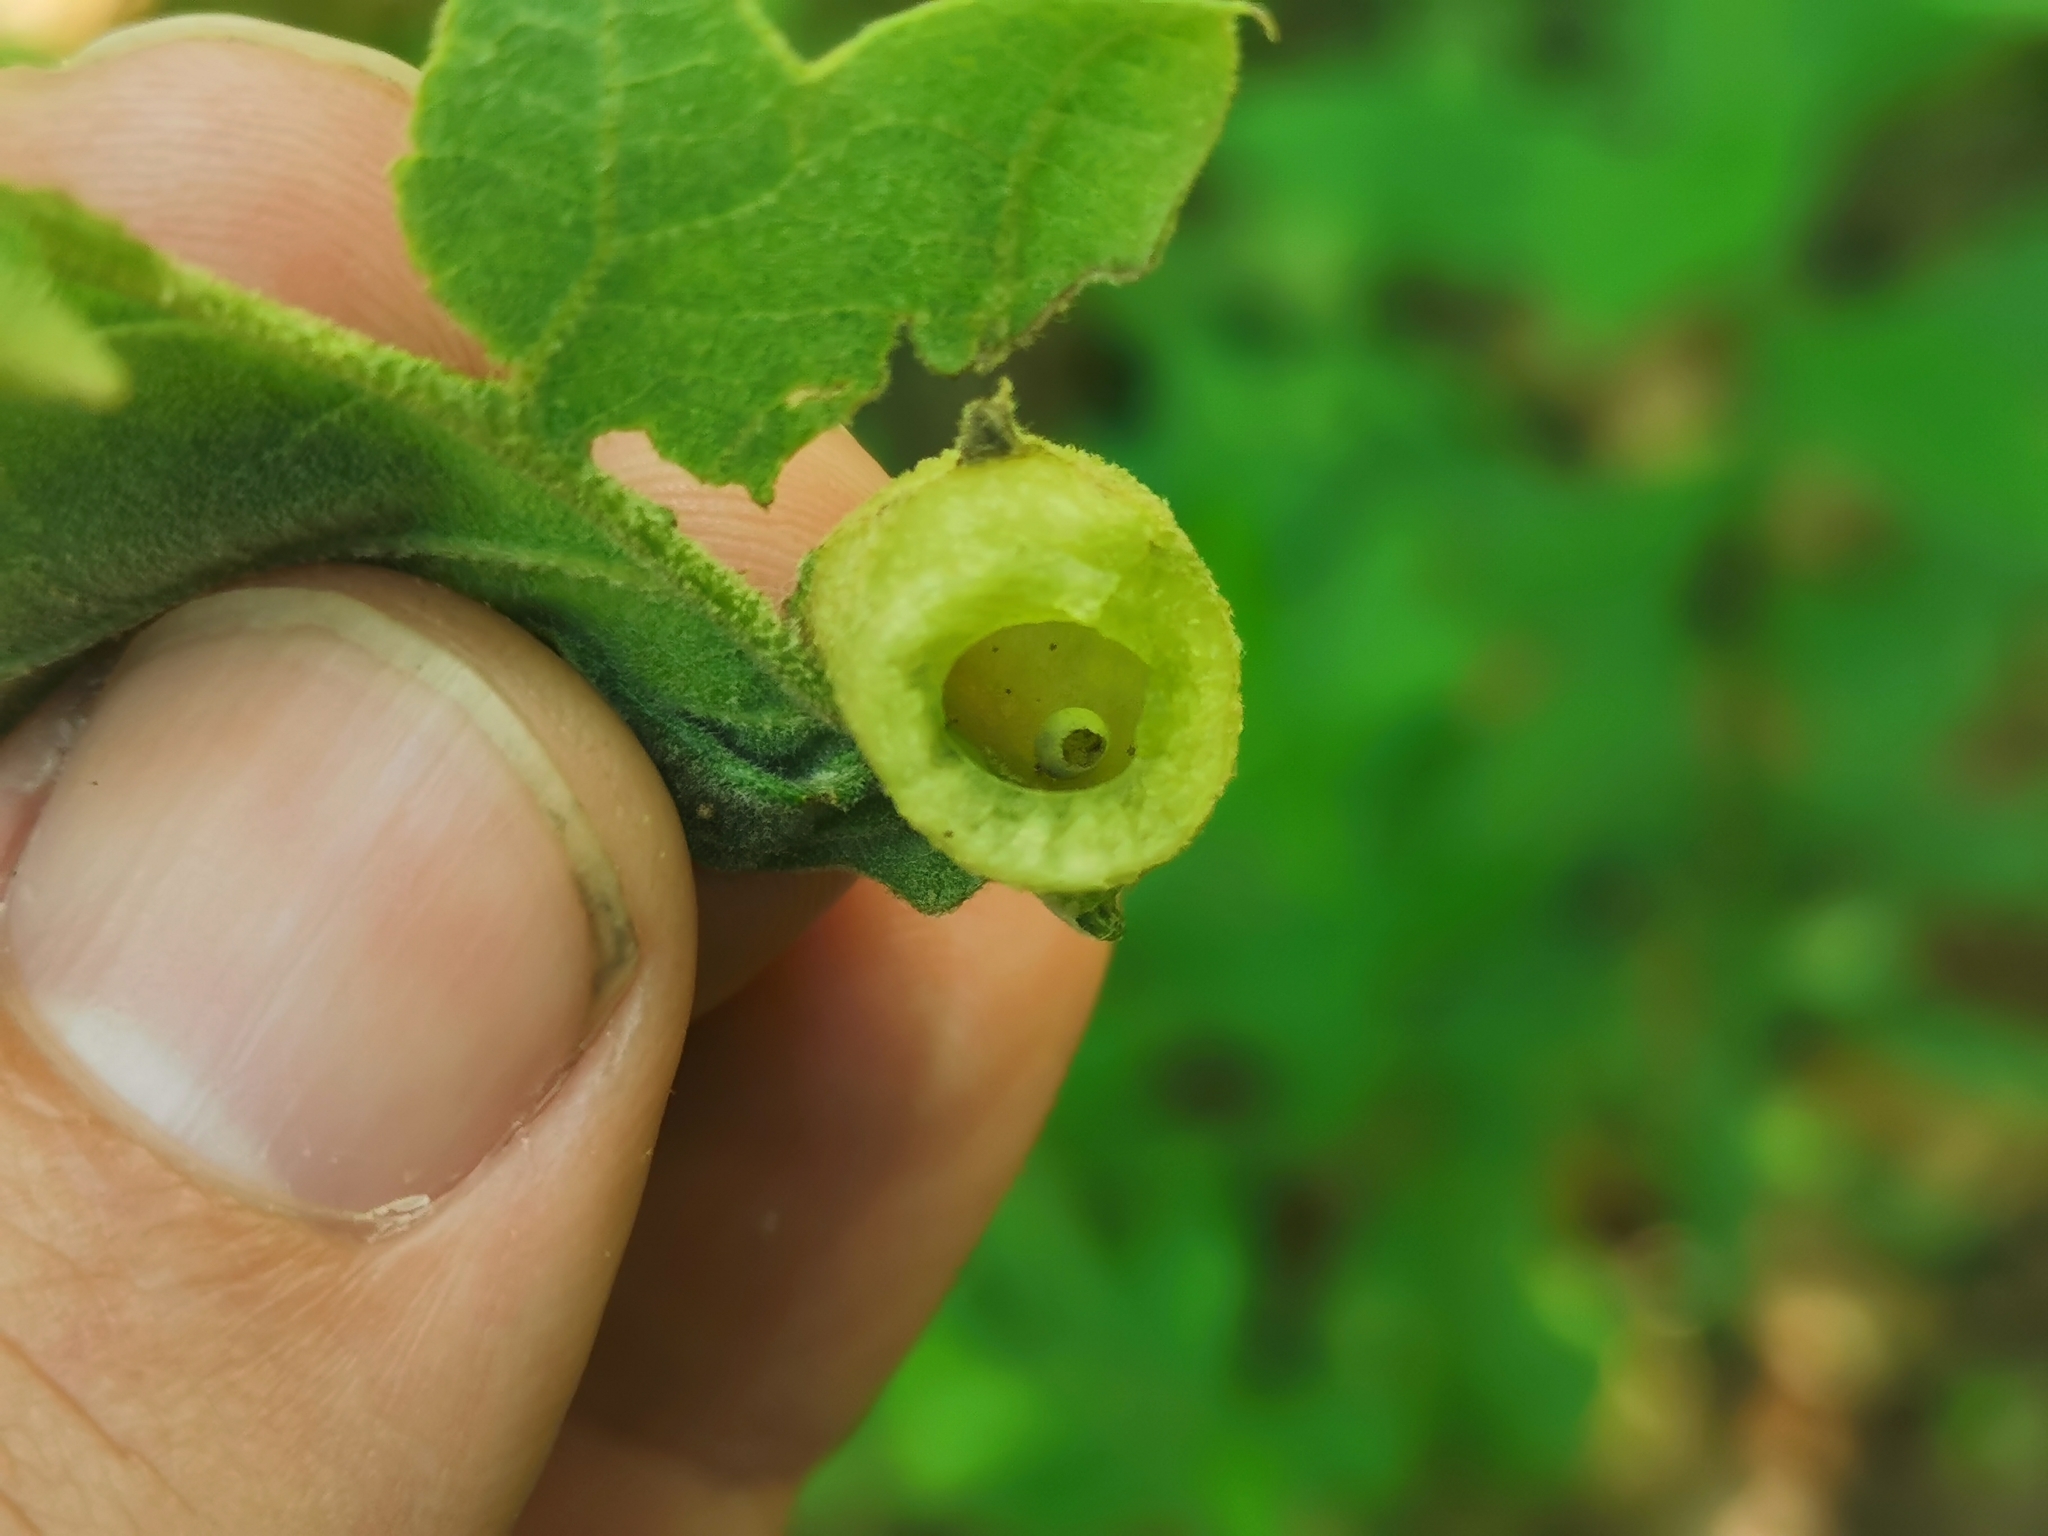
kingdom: Animalia
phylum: Arthropoda
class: Insecta
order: Hymenoptera
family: Cynipidae
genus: Dryocosmus
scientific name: Dryocosmus quercuspalustris
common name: Succulent oak gall wasp
